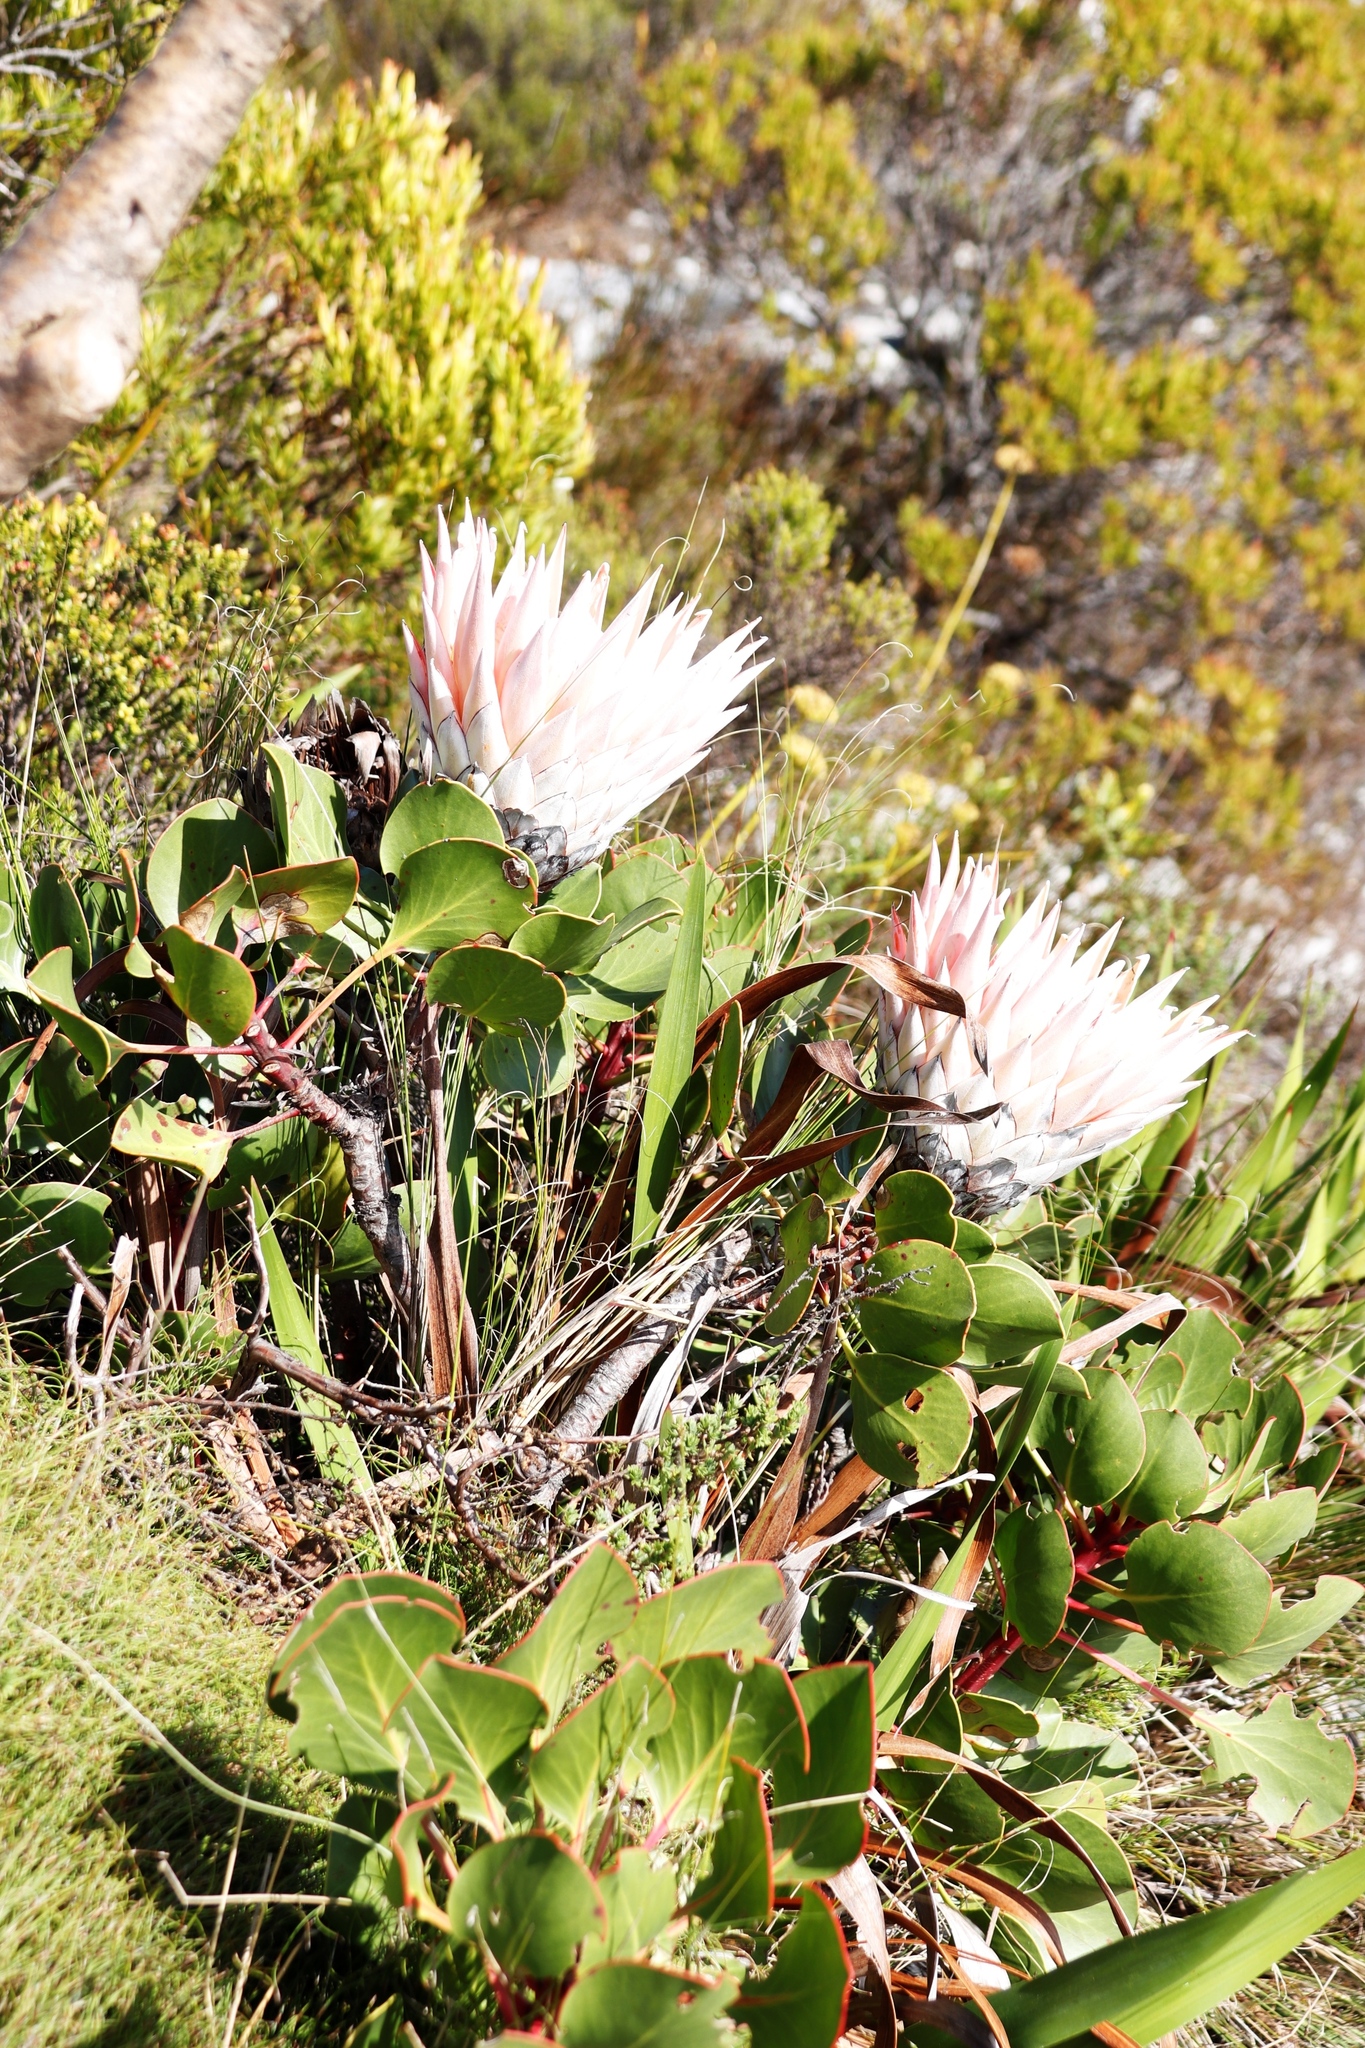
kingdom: Plantae
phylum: Tracheophyta
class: Magnoliopsida
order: Proteales
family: Proteaceae
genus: Protea
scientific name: Protea cynaroides
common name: King protea
